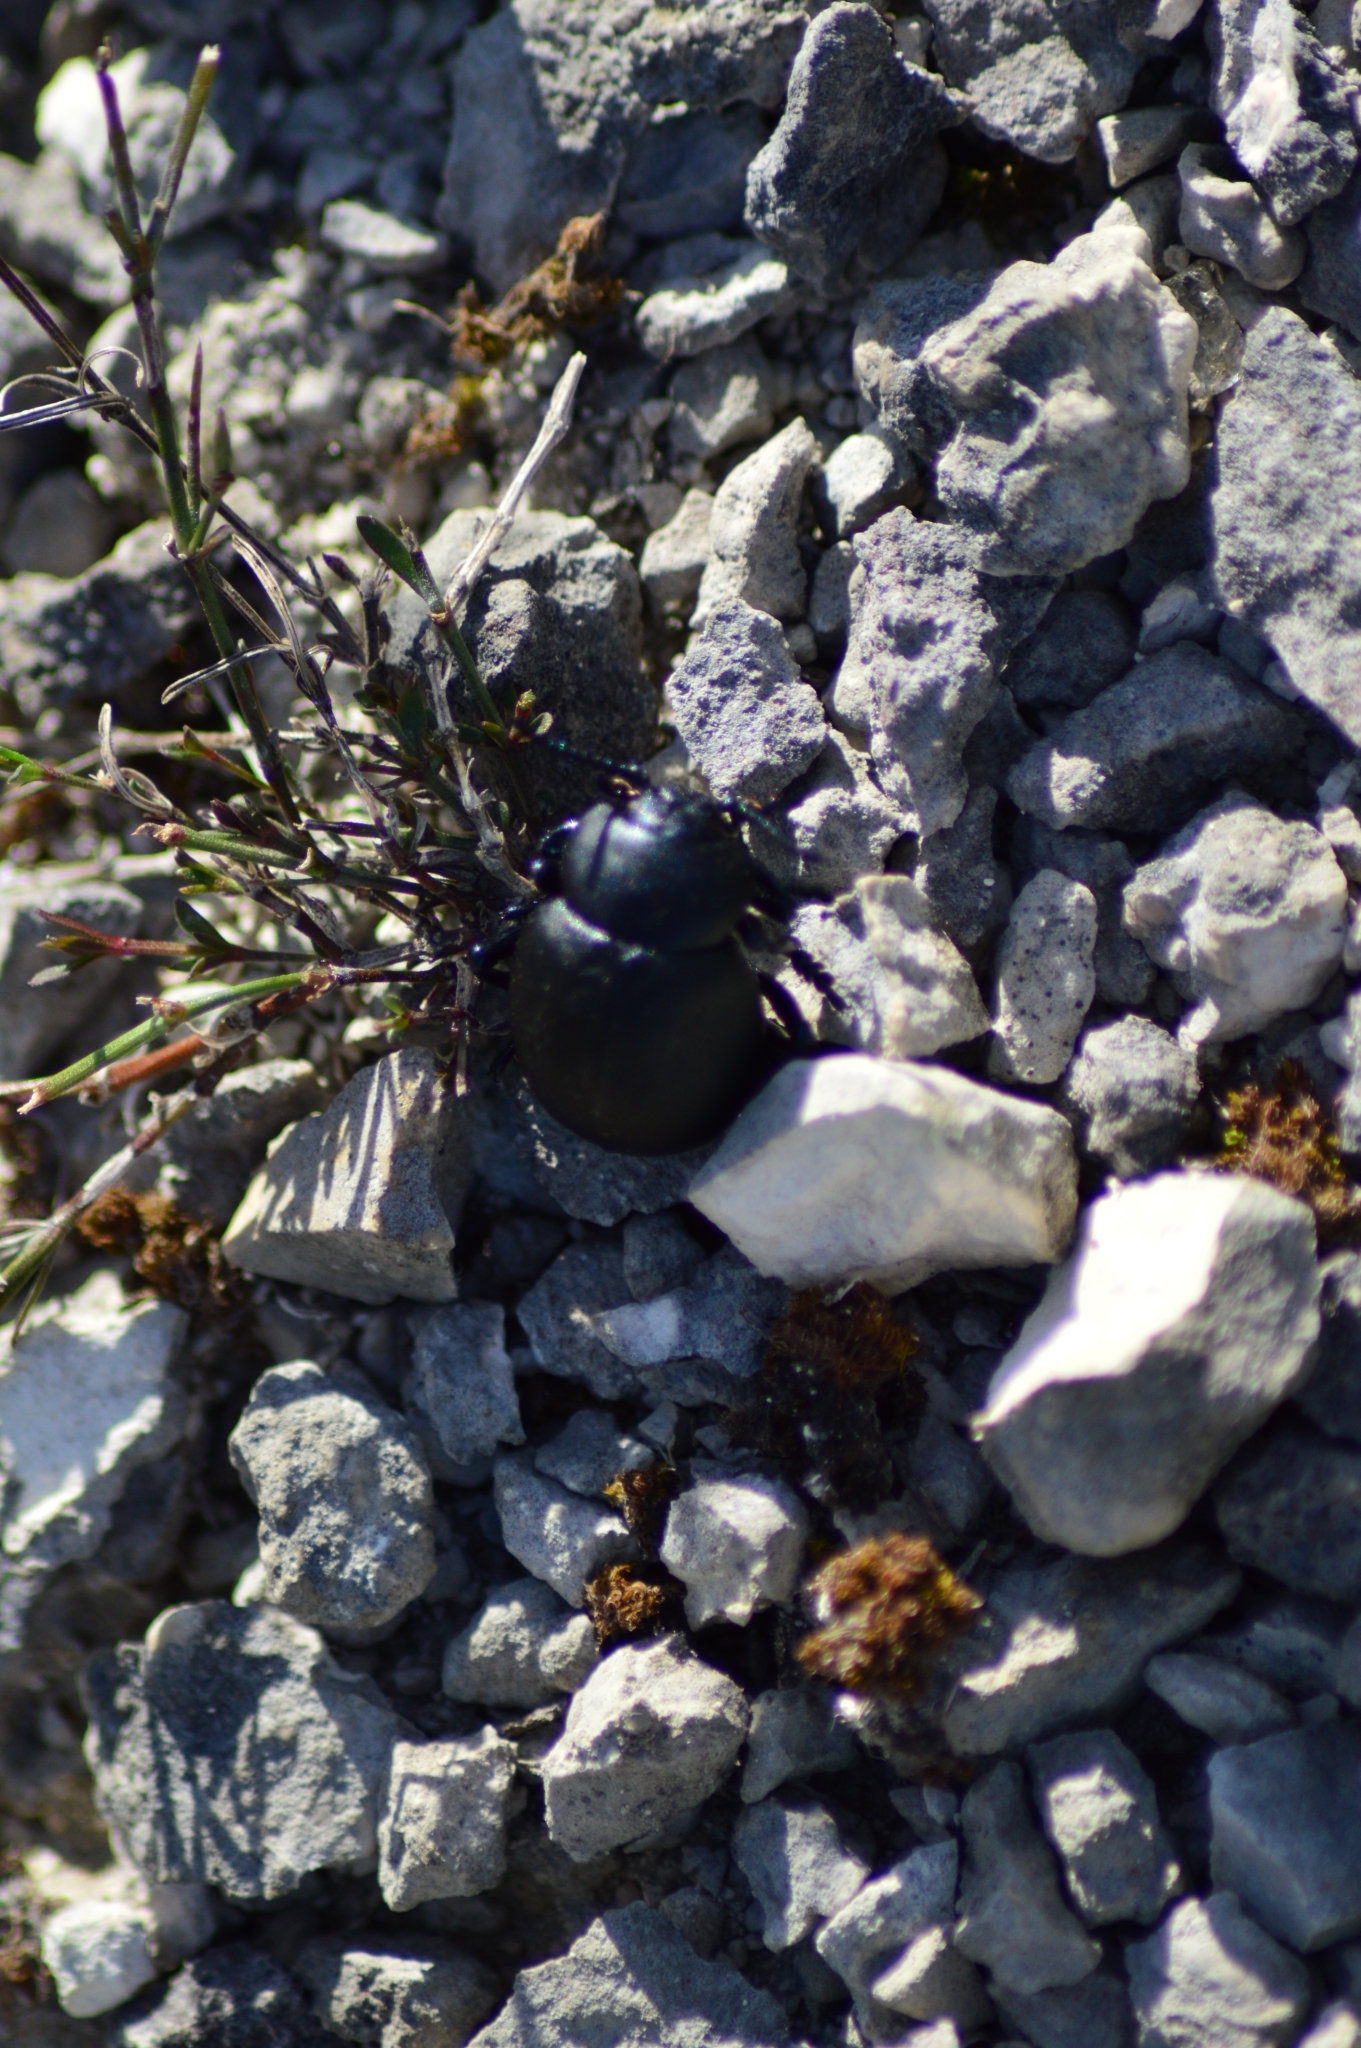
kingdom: Animalia
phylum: Arthropoda
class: Insecta
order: Coleoptera
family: Chrysomelidae
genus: Timarcha
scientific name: Timarcha tenebricosa
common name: Bloody-nosed beetle
